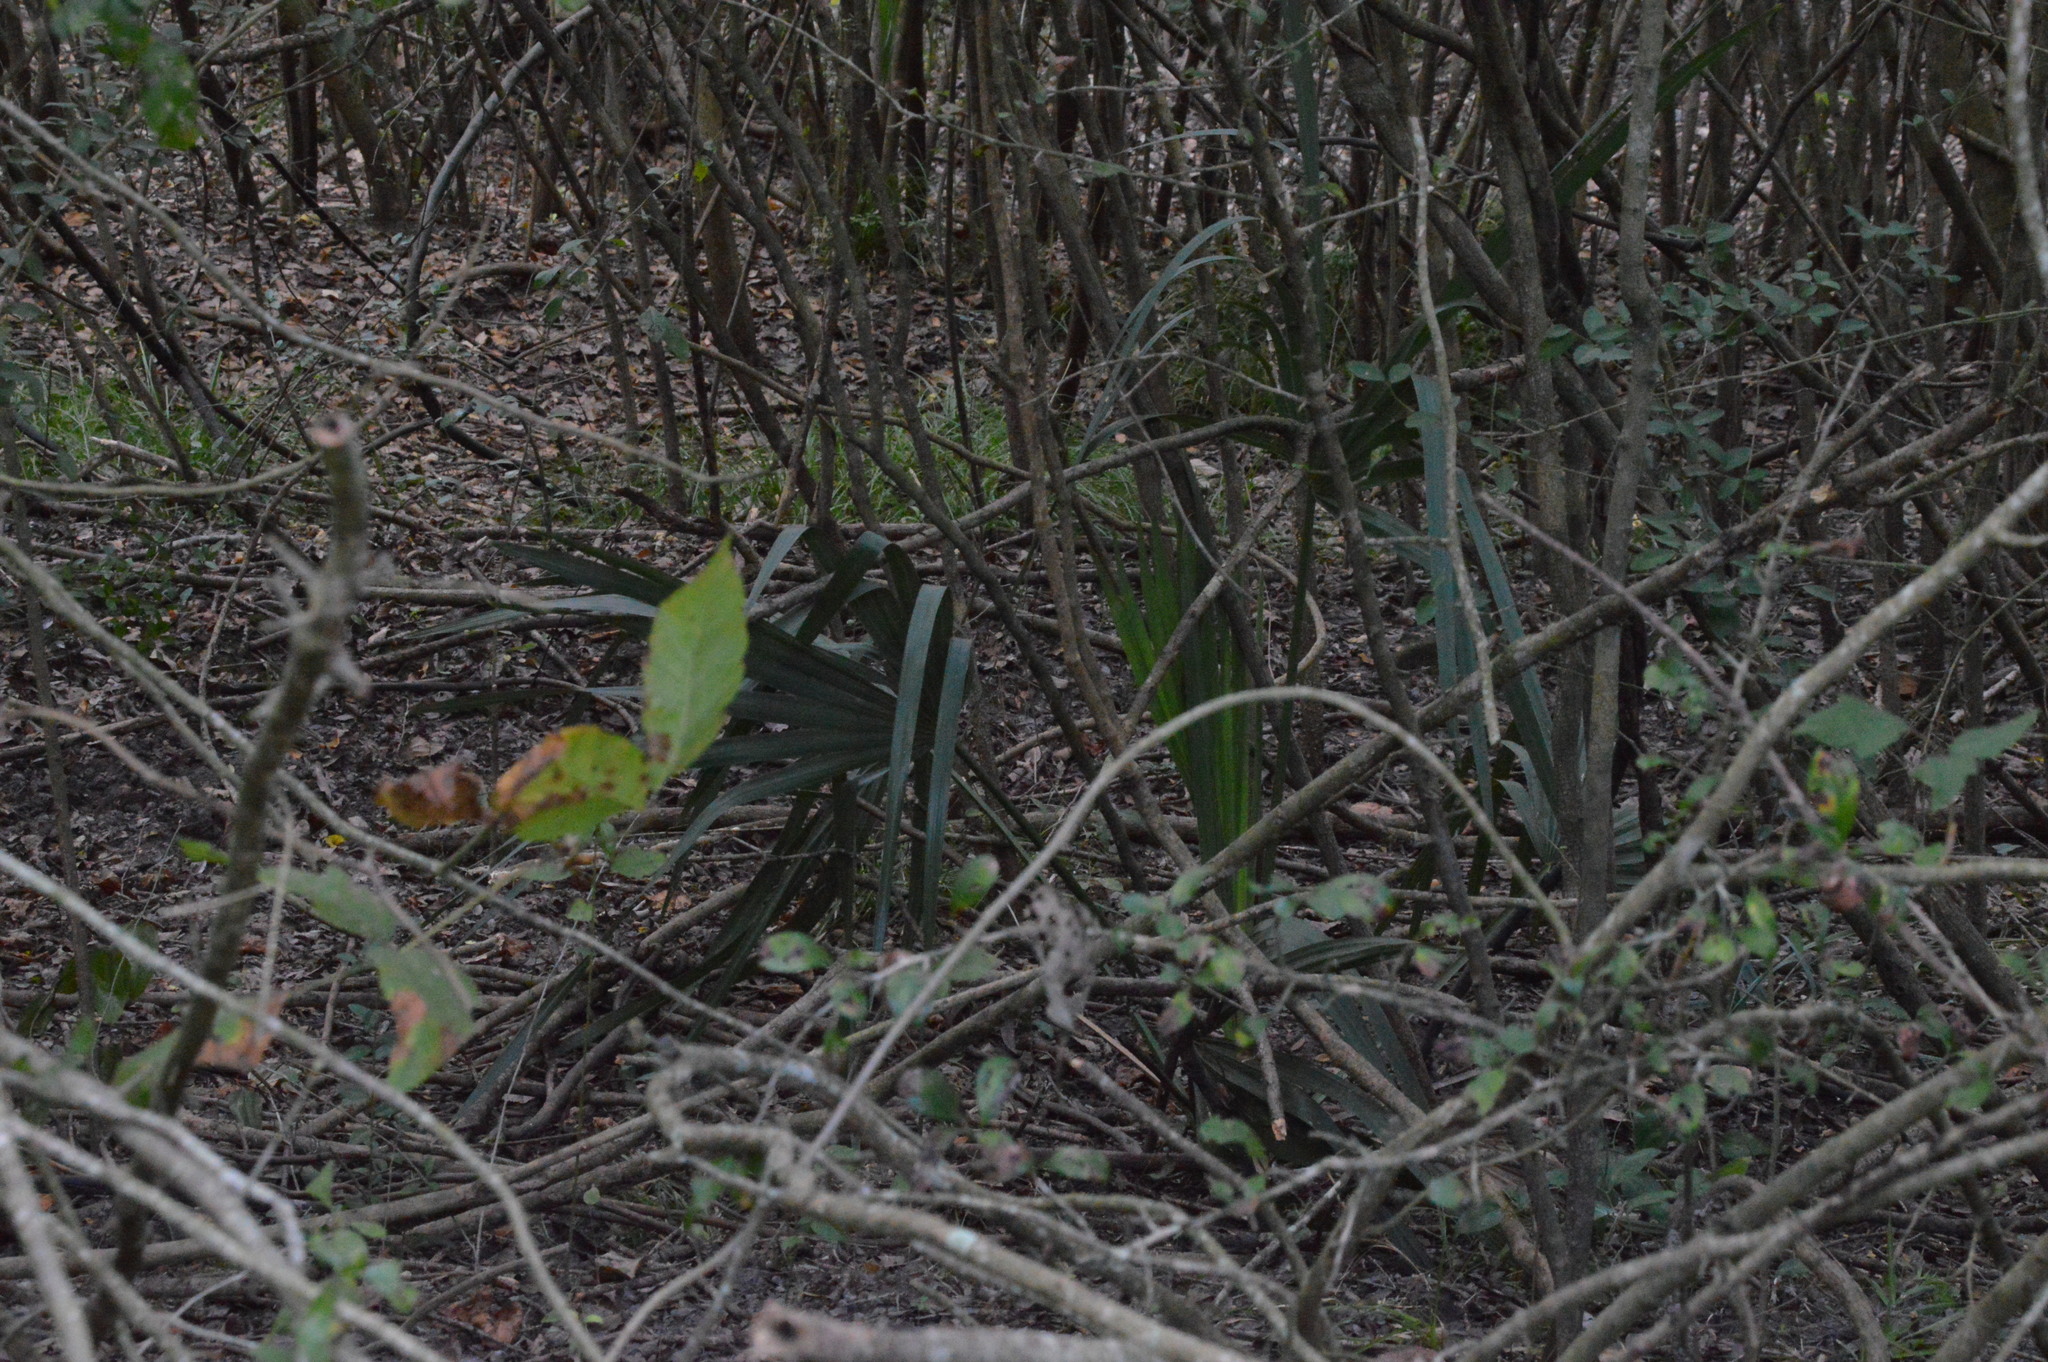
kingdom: Plantae
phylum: Tracheophyta
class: Liliopsida
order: Arecales
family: Arecaceae
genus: Sabal
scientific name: Sabal minor
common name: Dwarf palmetto
